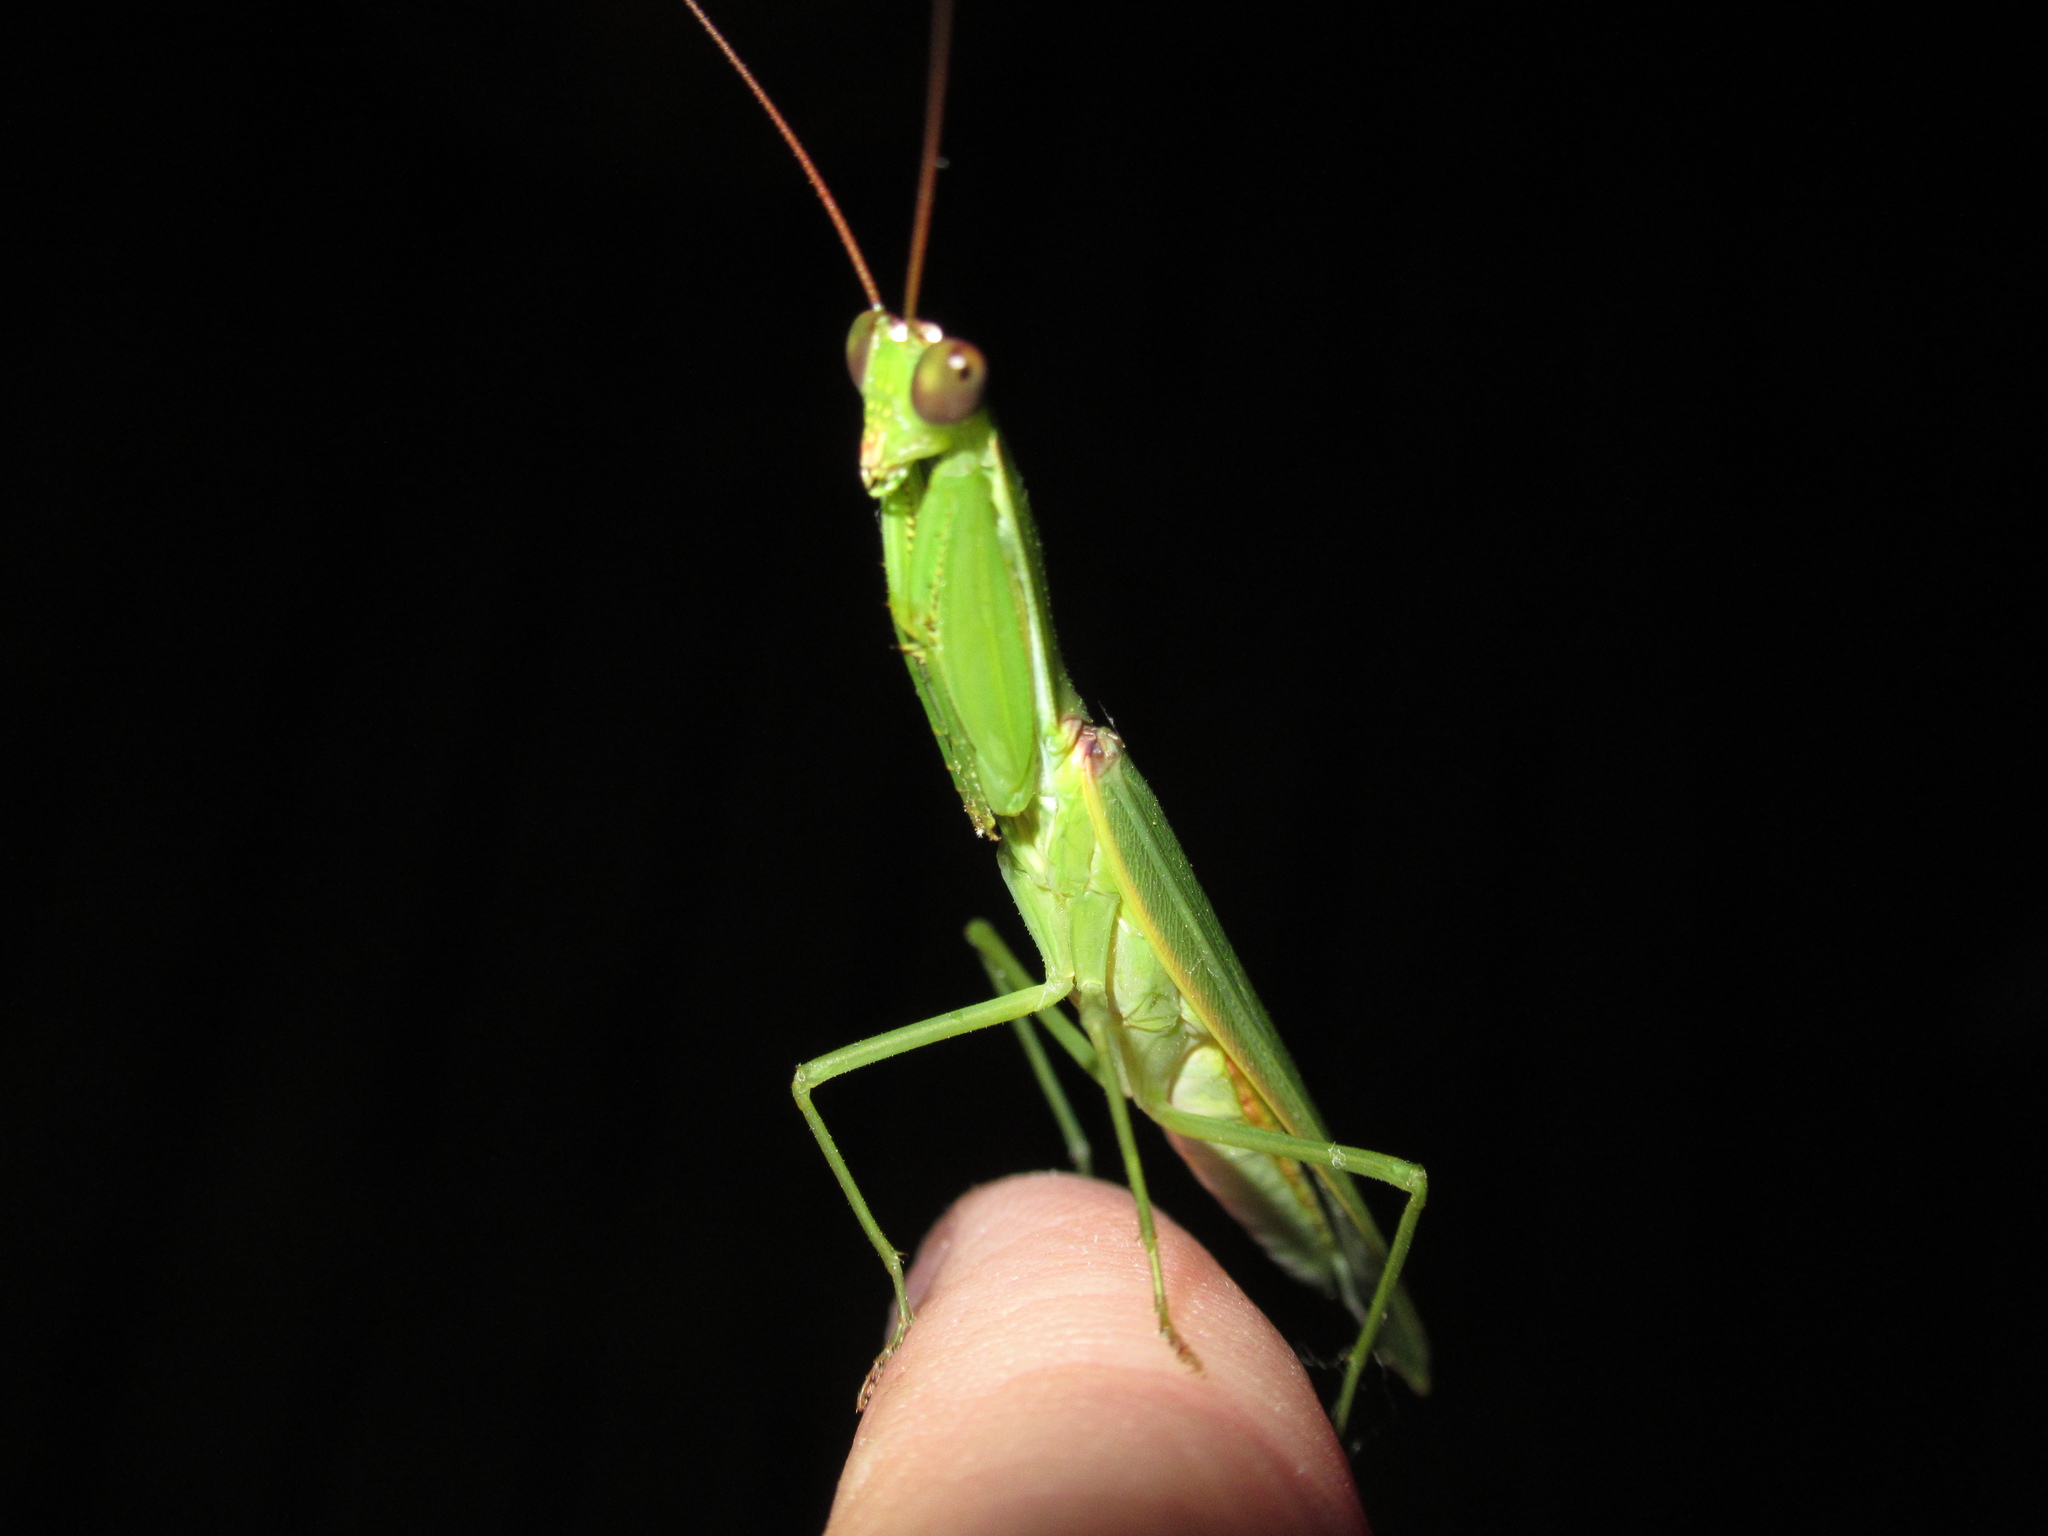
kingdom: Animalia
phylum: Arthropoda
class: Insecta
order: Mantodea
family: Mantidae
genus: Orthodera
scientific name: Orthodera novaezealandiae
